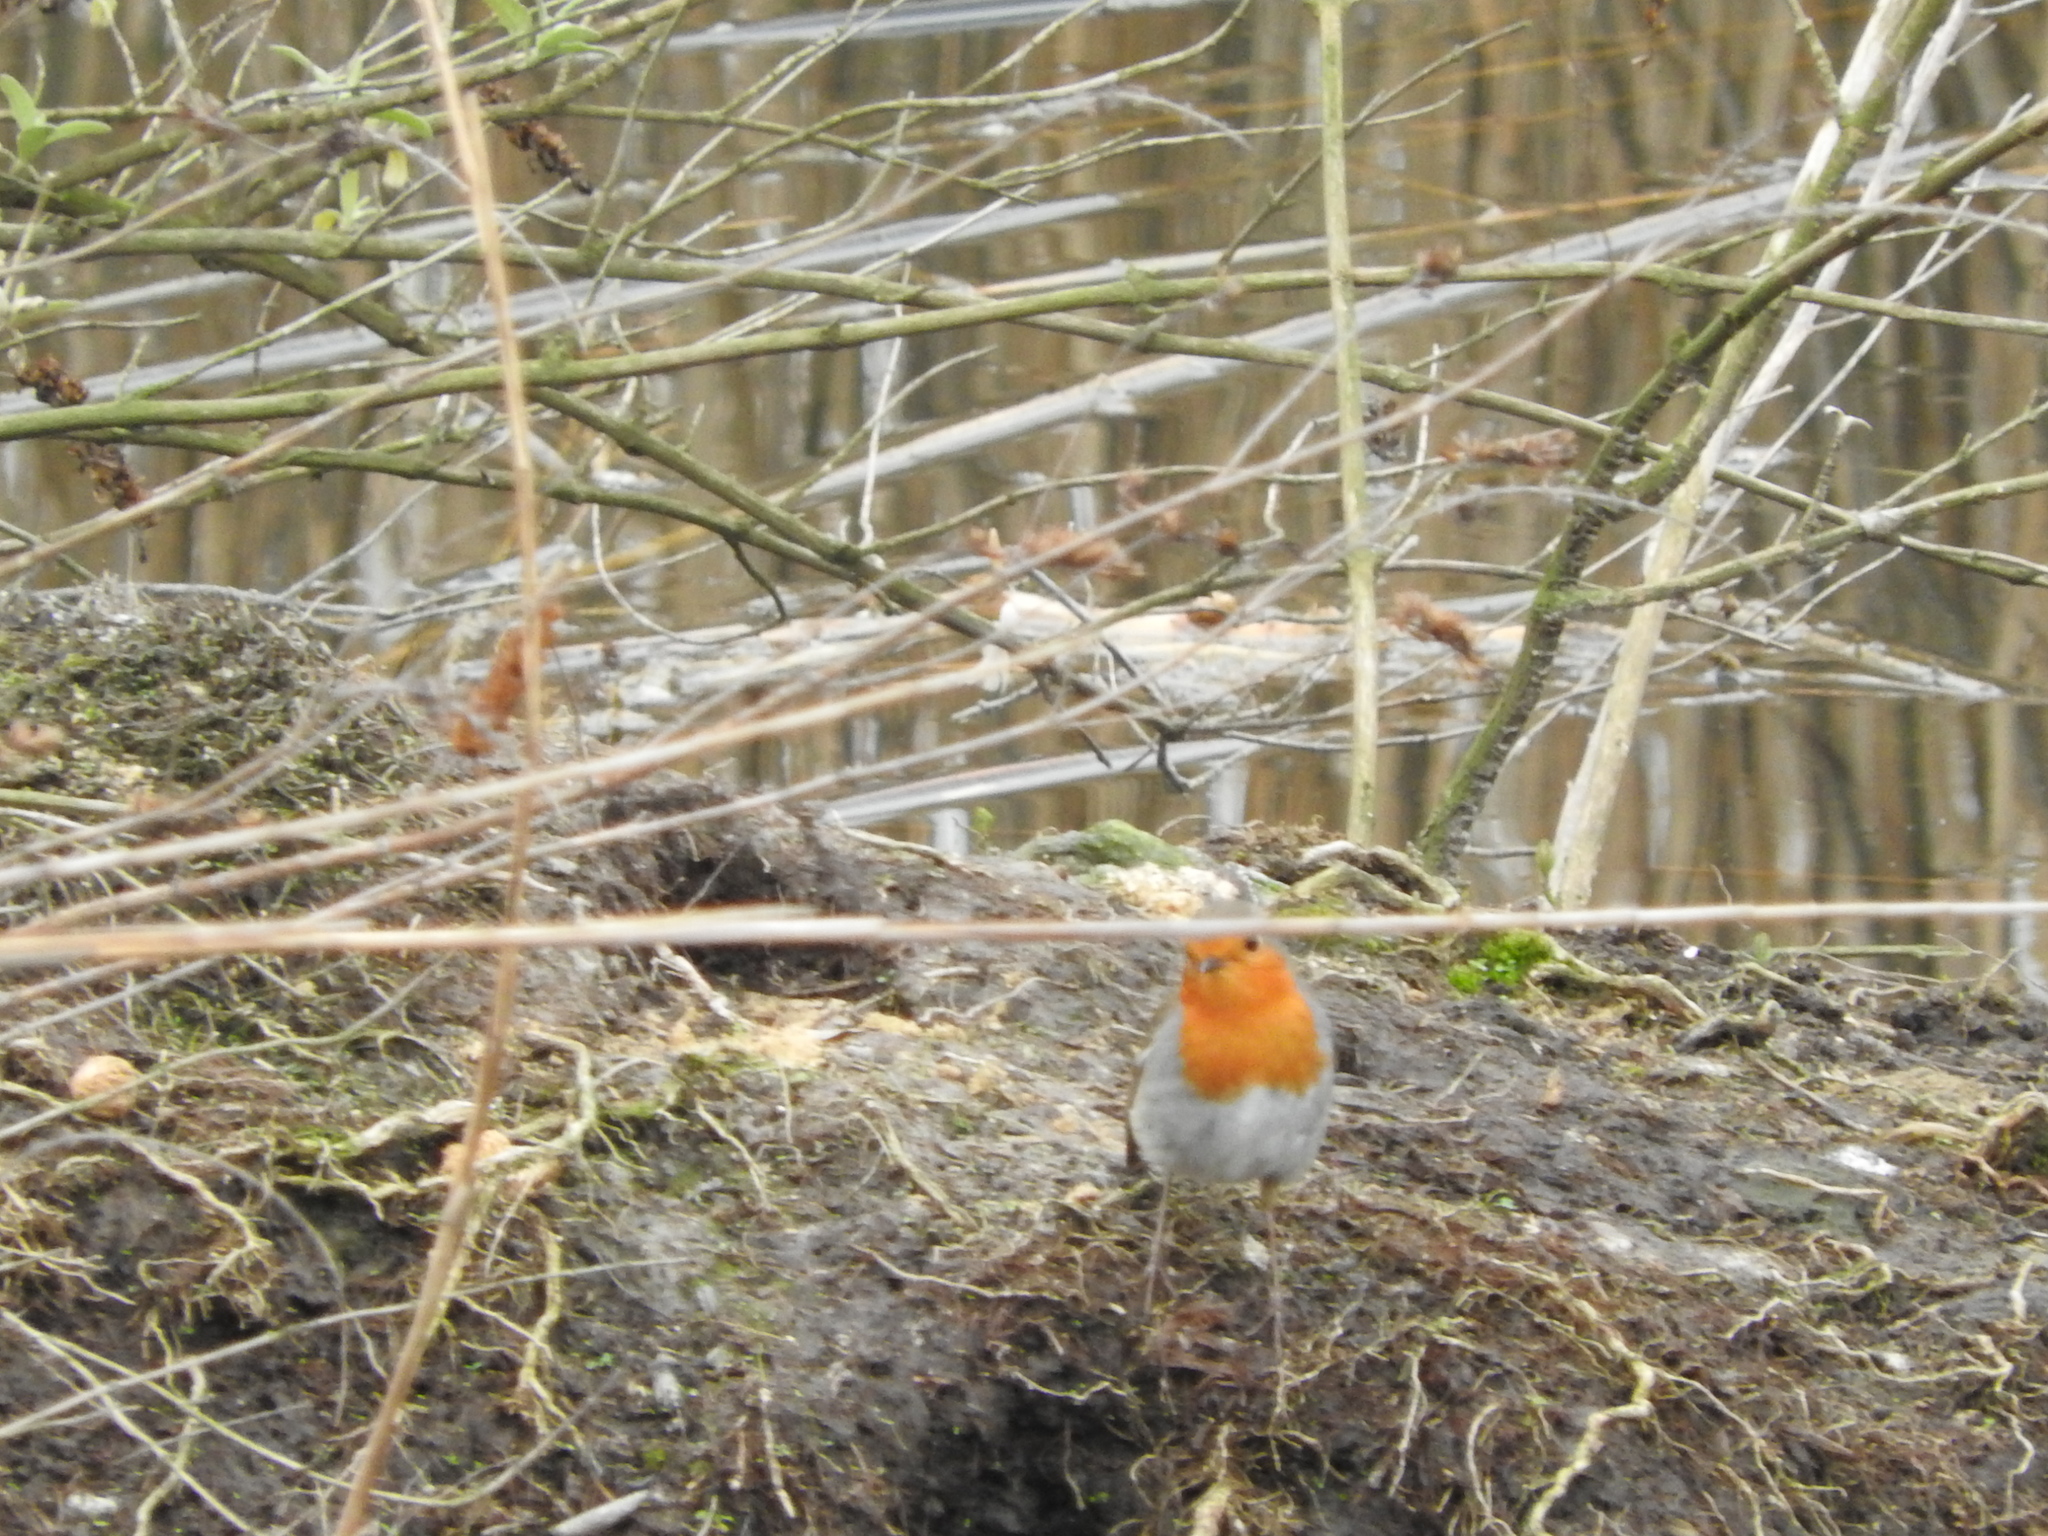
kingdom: Animalia
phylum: Chordata
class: Aves
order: Passeriformes
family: Muscicapidae
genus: Erithacus
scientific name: Erithacus rubecula
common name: European robin
